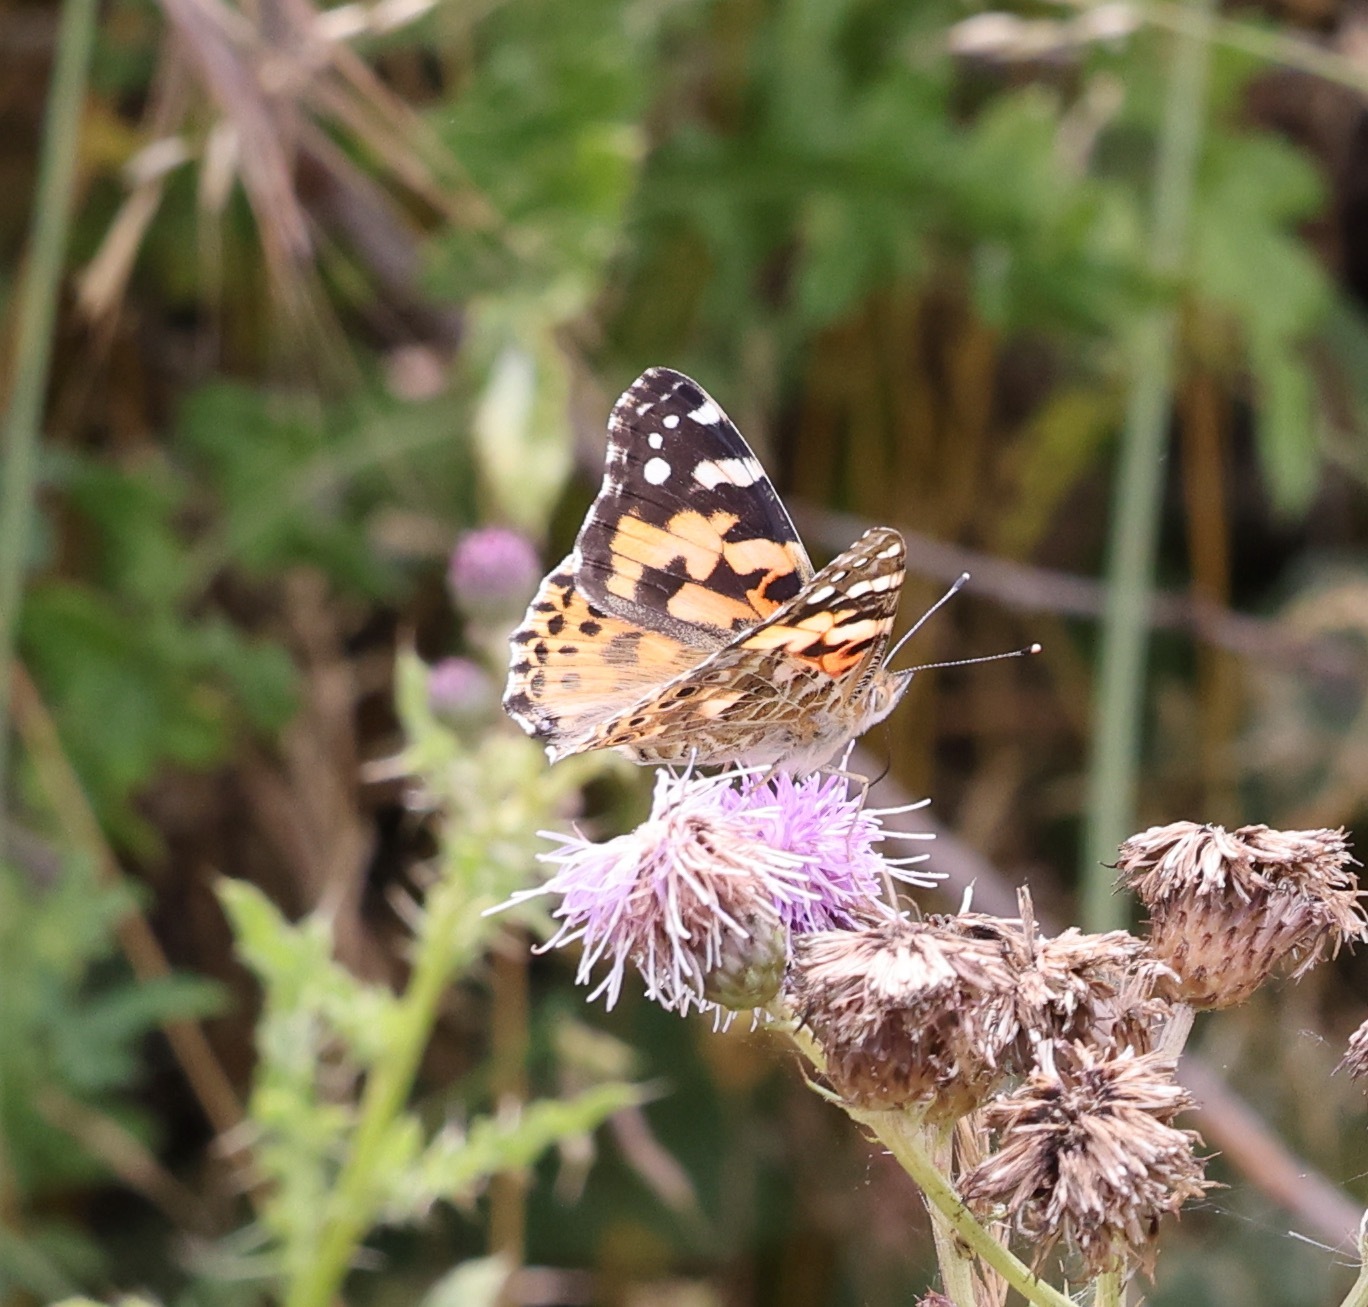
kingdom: Animalia
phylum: Arthropoda
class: Insecta
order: Lepidoptera
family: Nymphalidae
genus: Vanessa
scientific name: Vanessa cardui
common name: Painted lady
